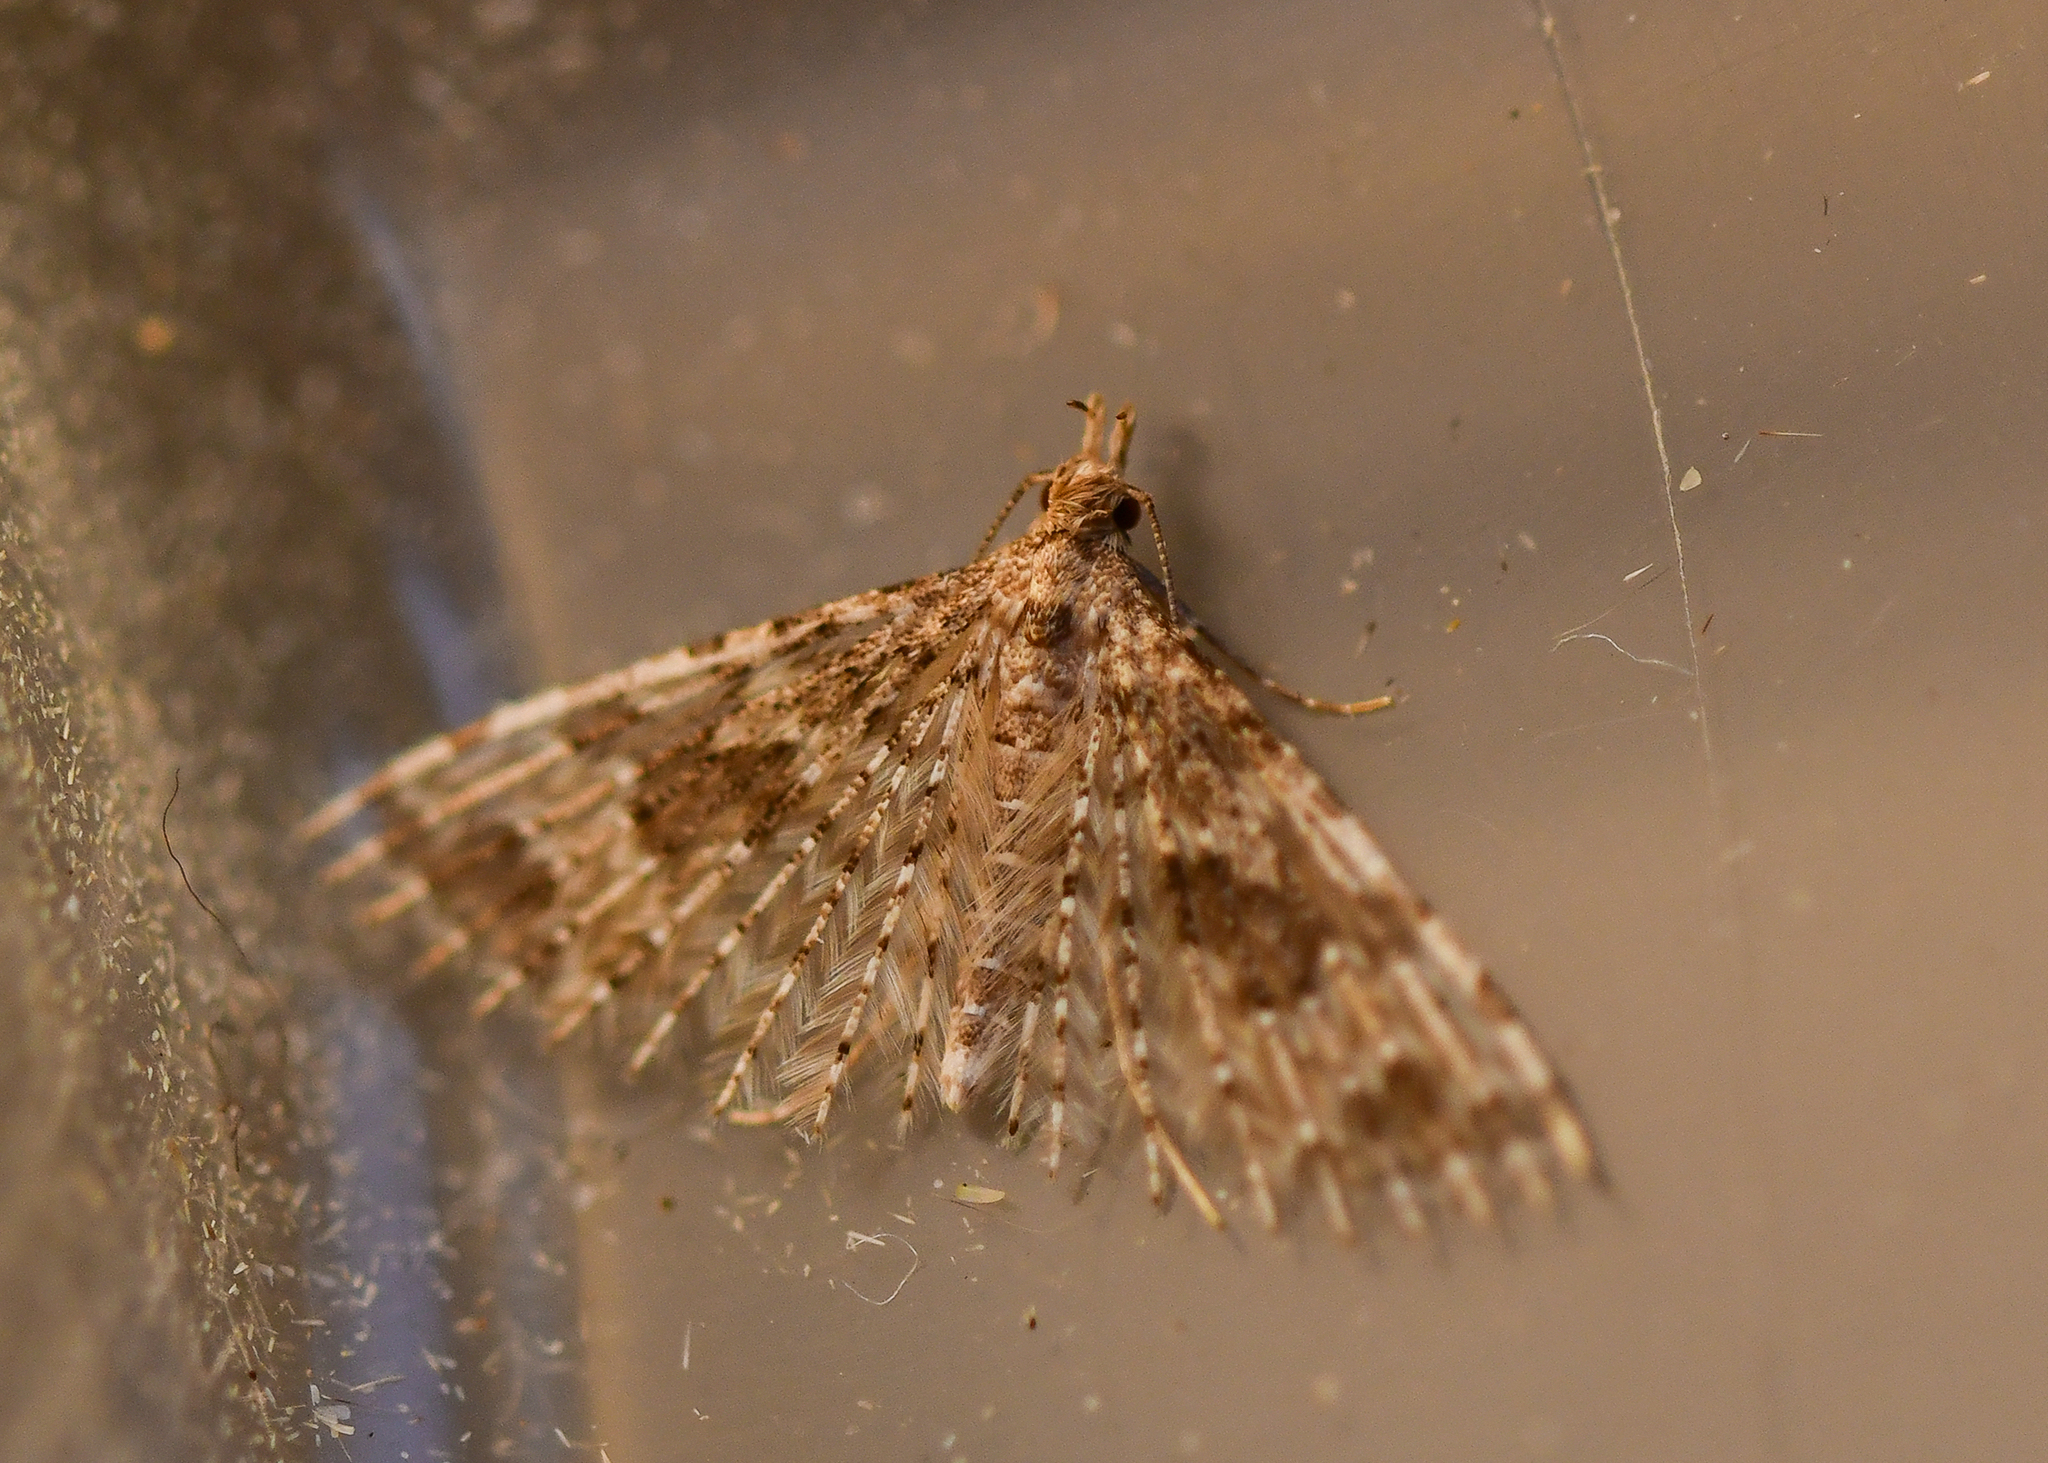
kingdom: Animalia
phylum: Arthropoda
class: Insecta
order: Lepidoptera
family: Alucitidae
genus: Alucita
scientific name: Alucita hexadactyla
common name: Twenty-plume moth
